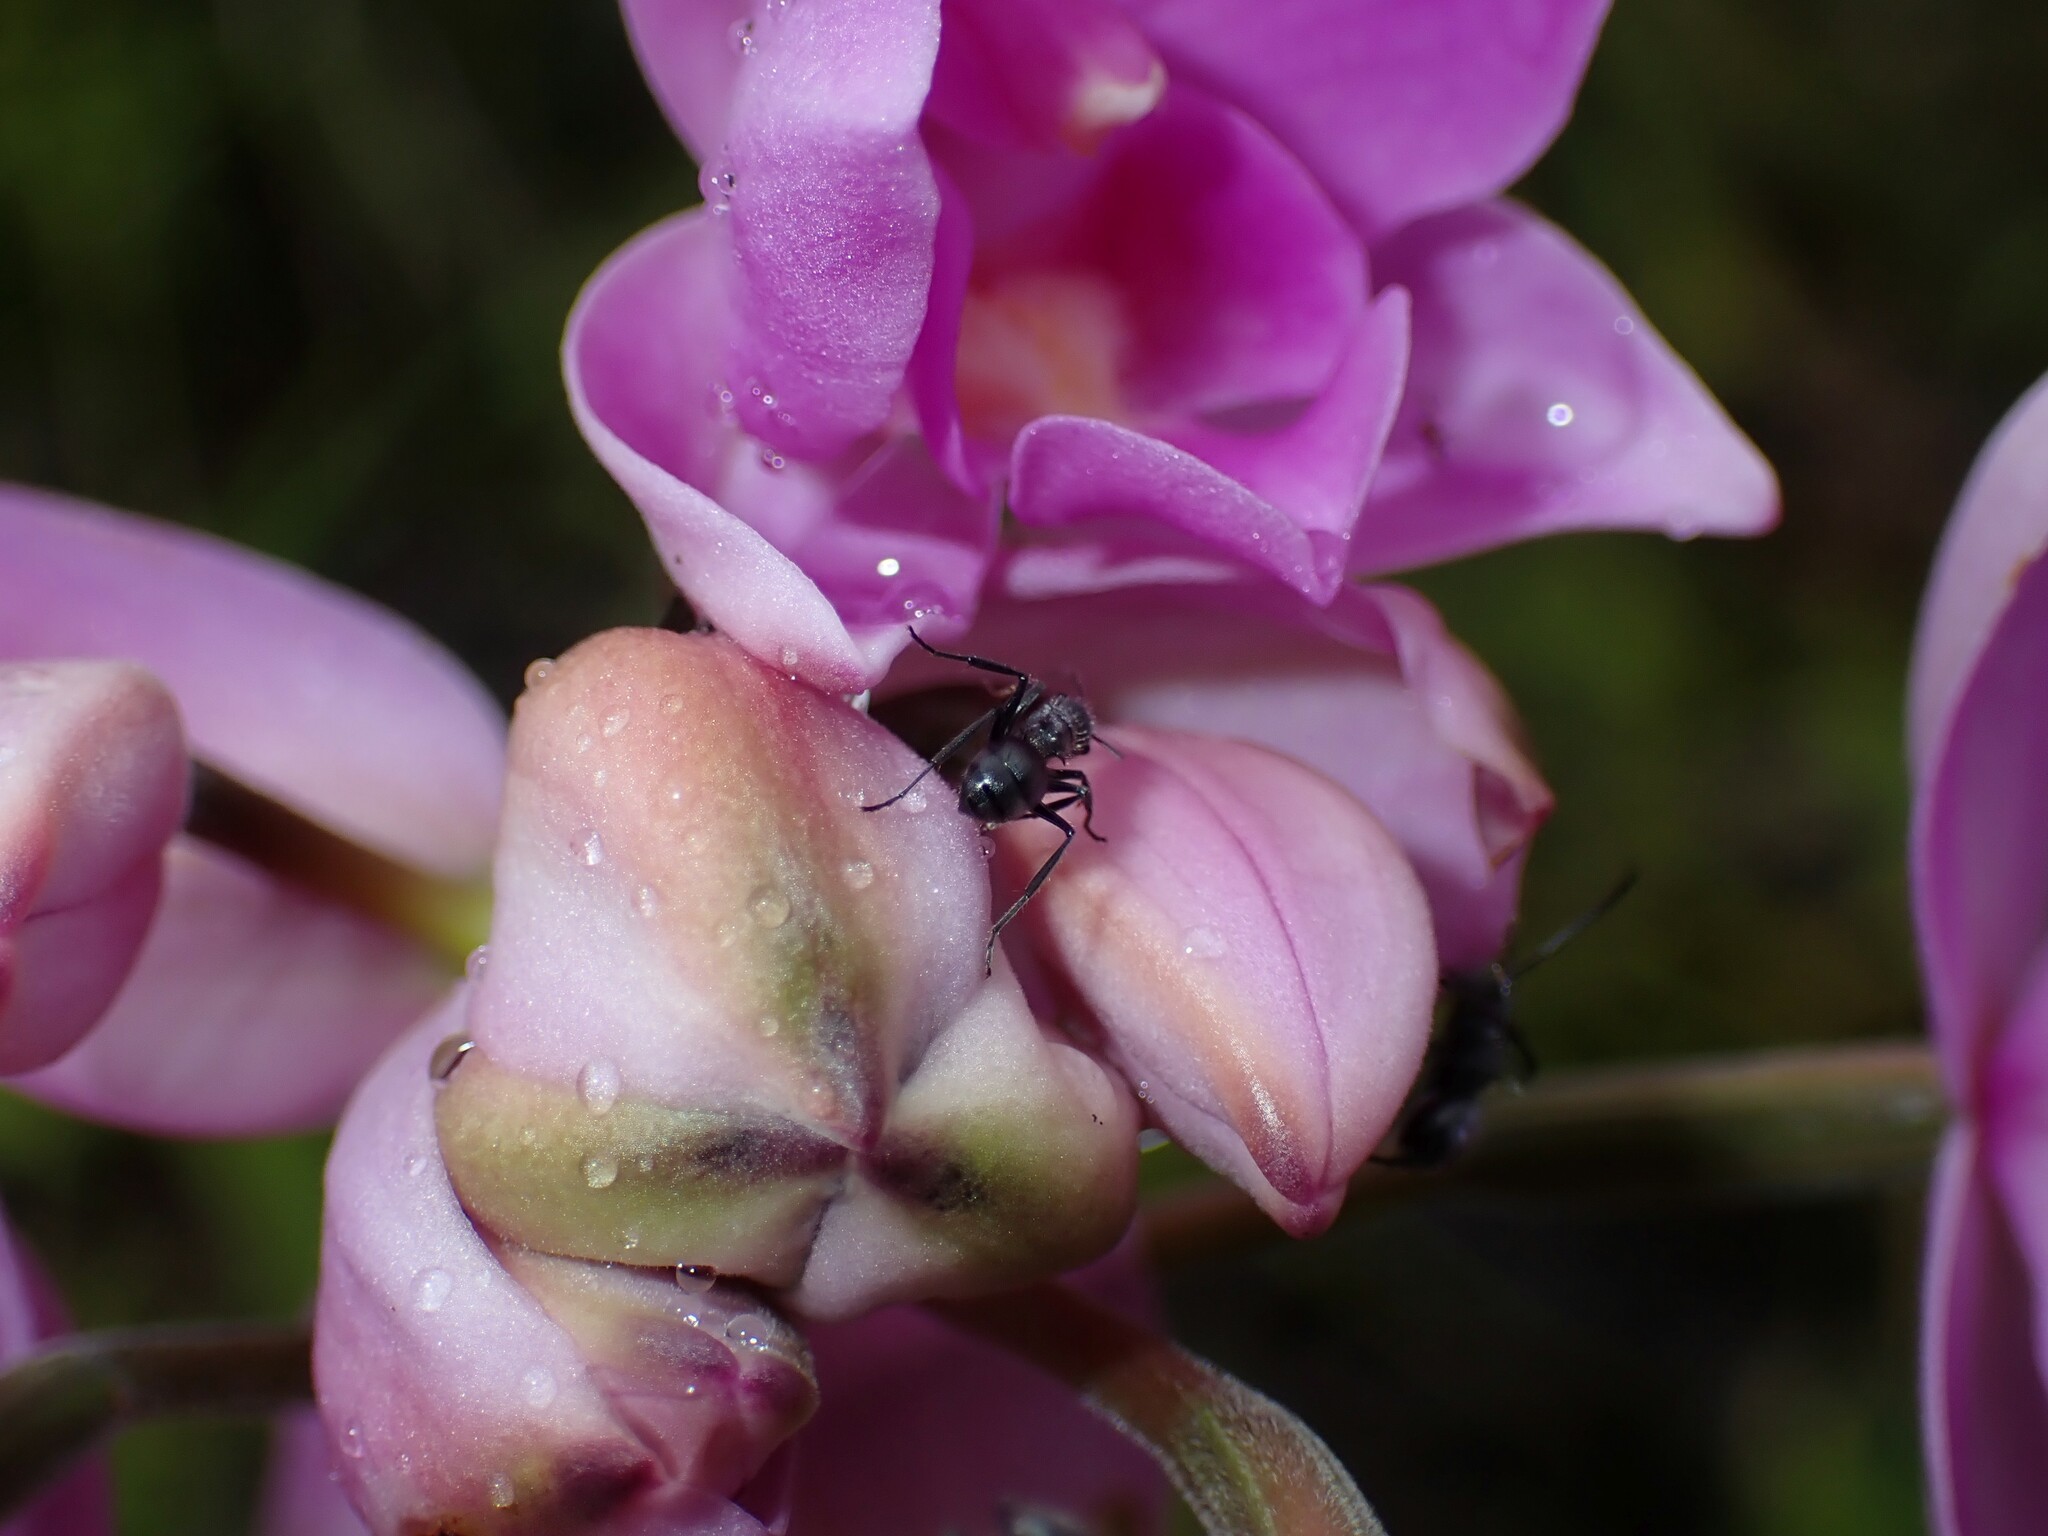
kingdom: Animalia
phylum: Arthropoda
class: Insecta
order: Hymenoptera
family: Formicidae
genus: Polyrhachis
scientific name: Polyrhachis aurea
